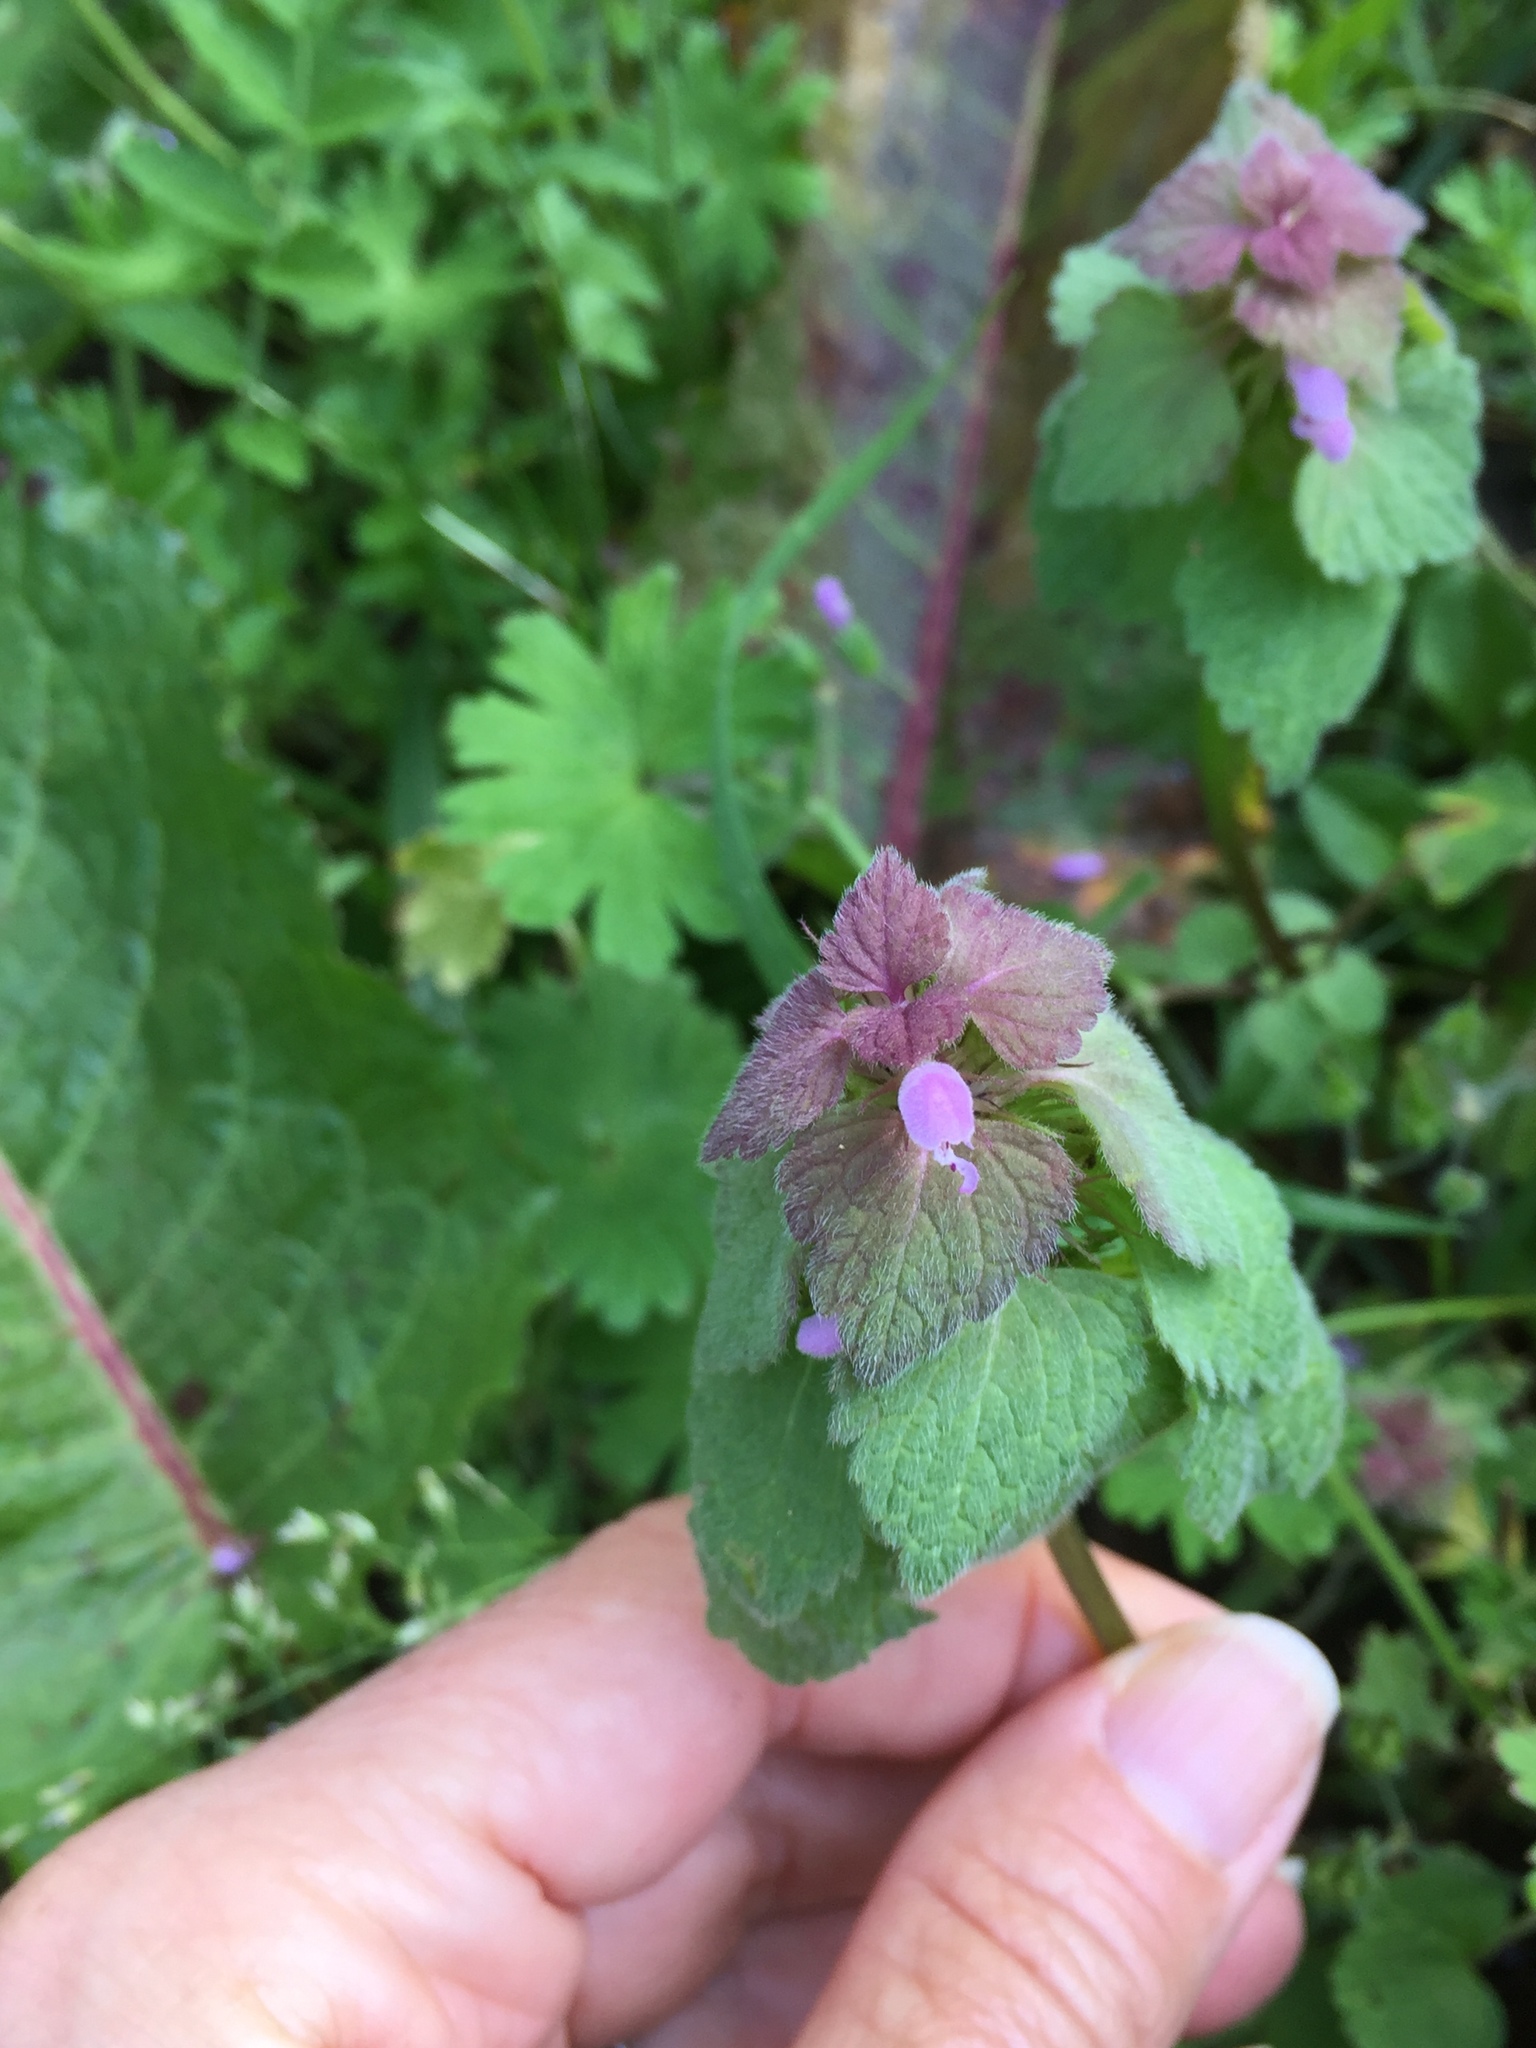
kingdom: Plantae
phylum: Tracheophyta
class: Magnoliopsida
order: Lamiales
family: Lamiaceae
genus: Lamium
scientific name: Lamium purpureum
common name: Red dead-nettle
